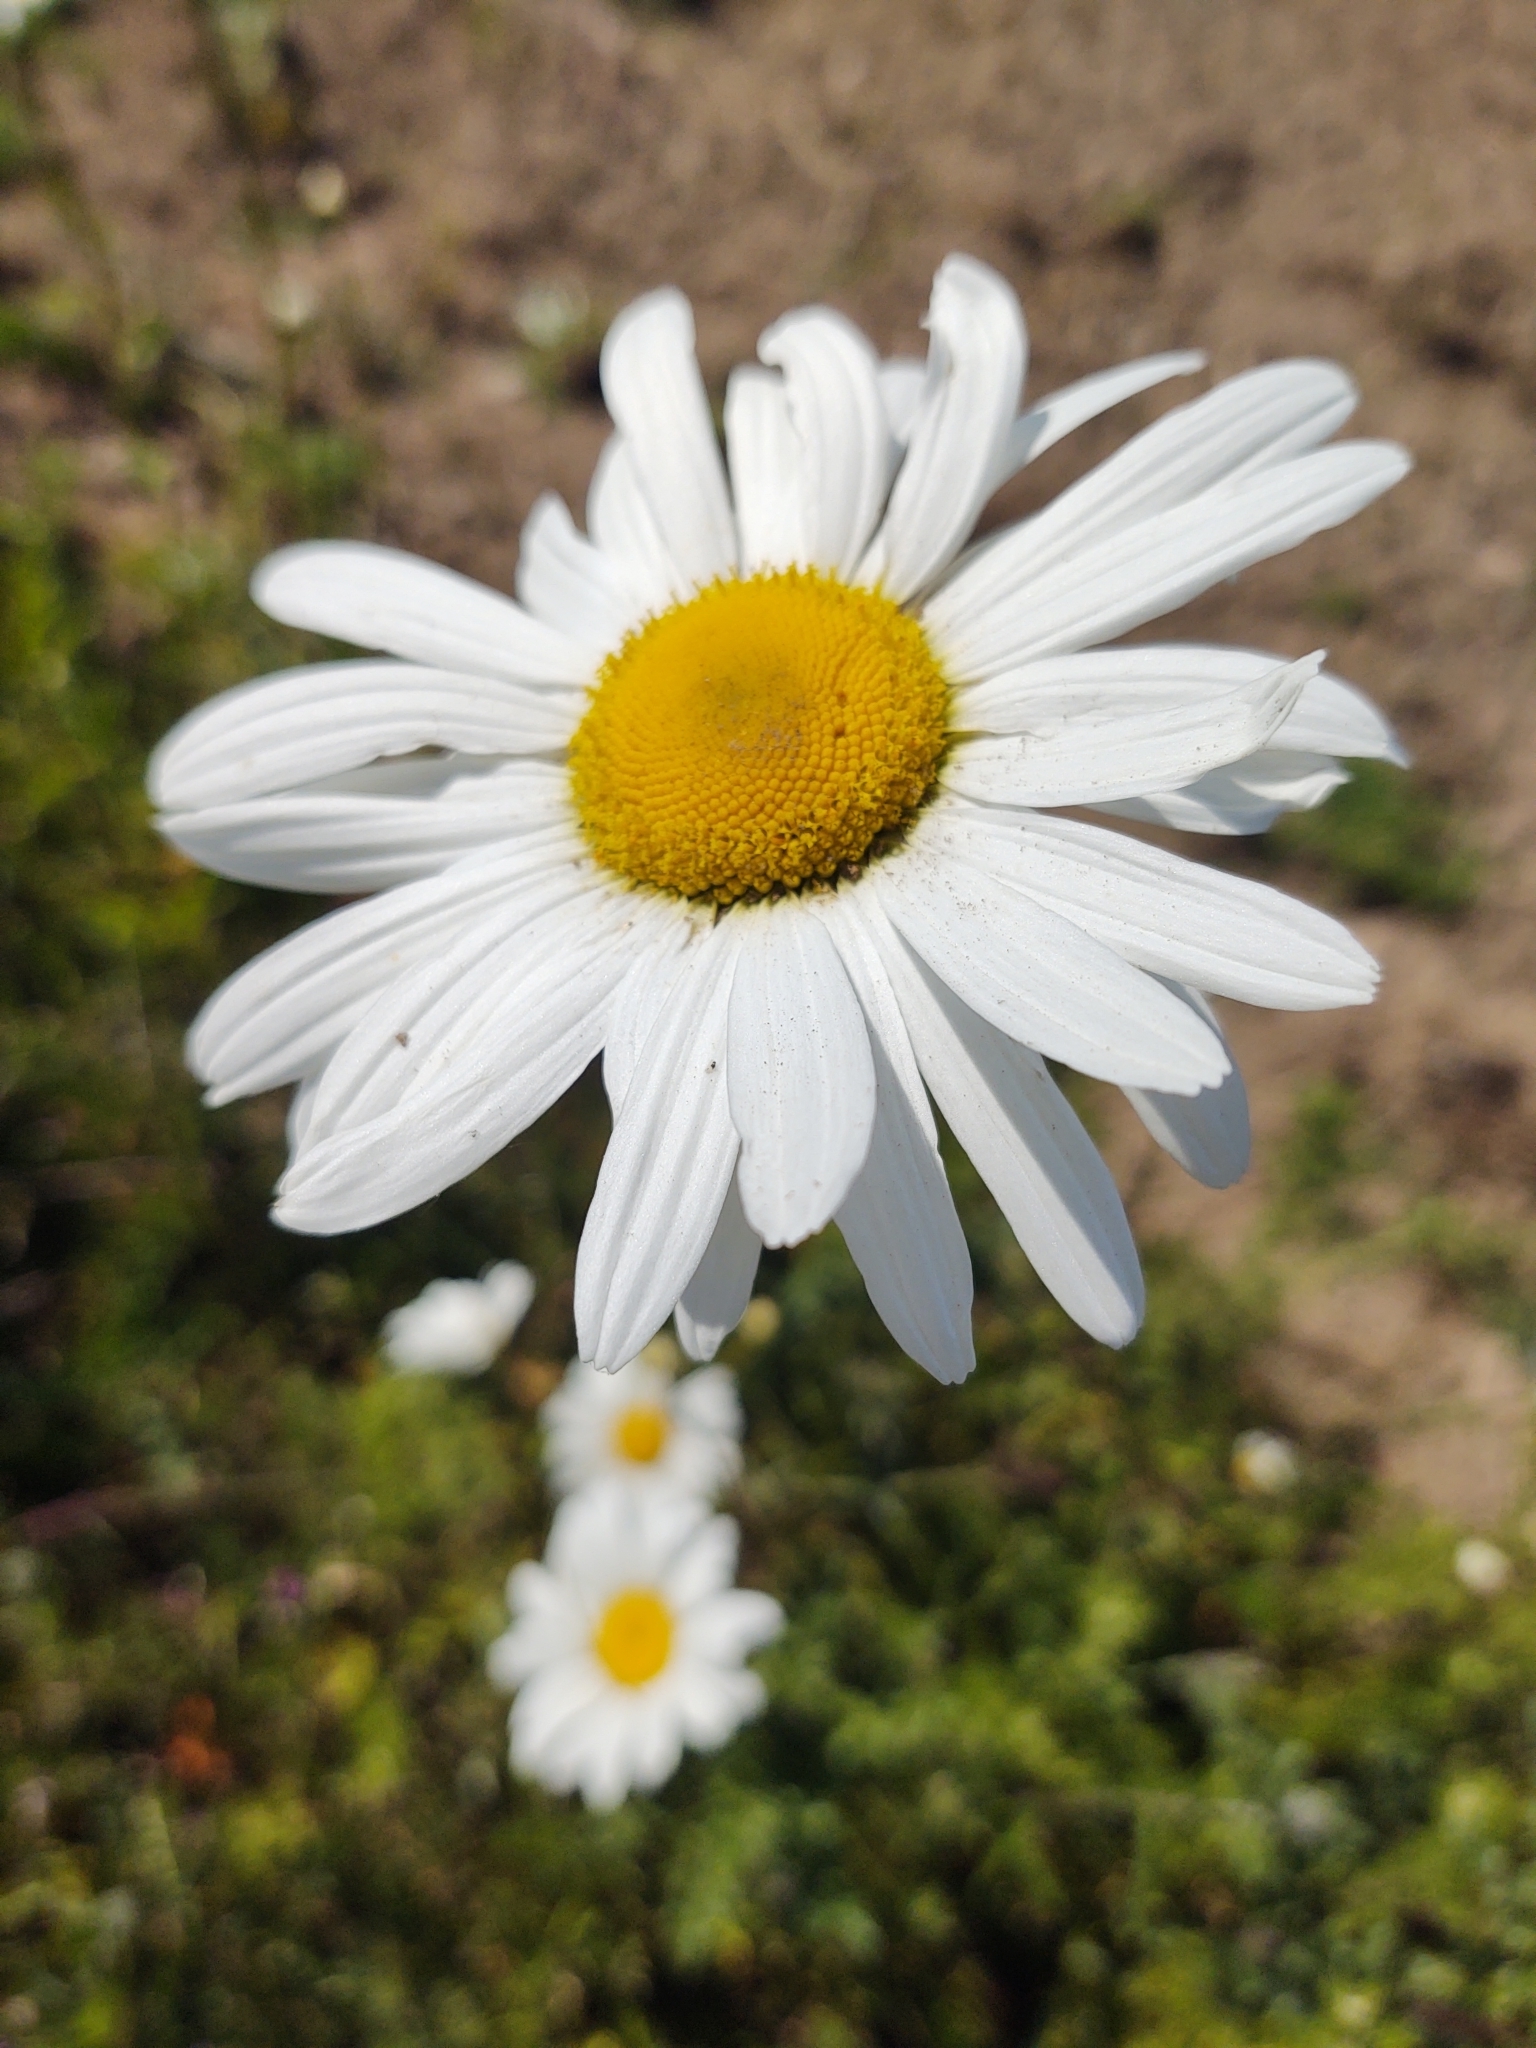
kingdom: Plantae
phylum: Tracheophyta
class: Magnoliopsida
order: Asterales
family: Asteraceae
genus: Leucanthemum
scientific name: Leucanthemum vulgare
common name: Oxeye daisy
